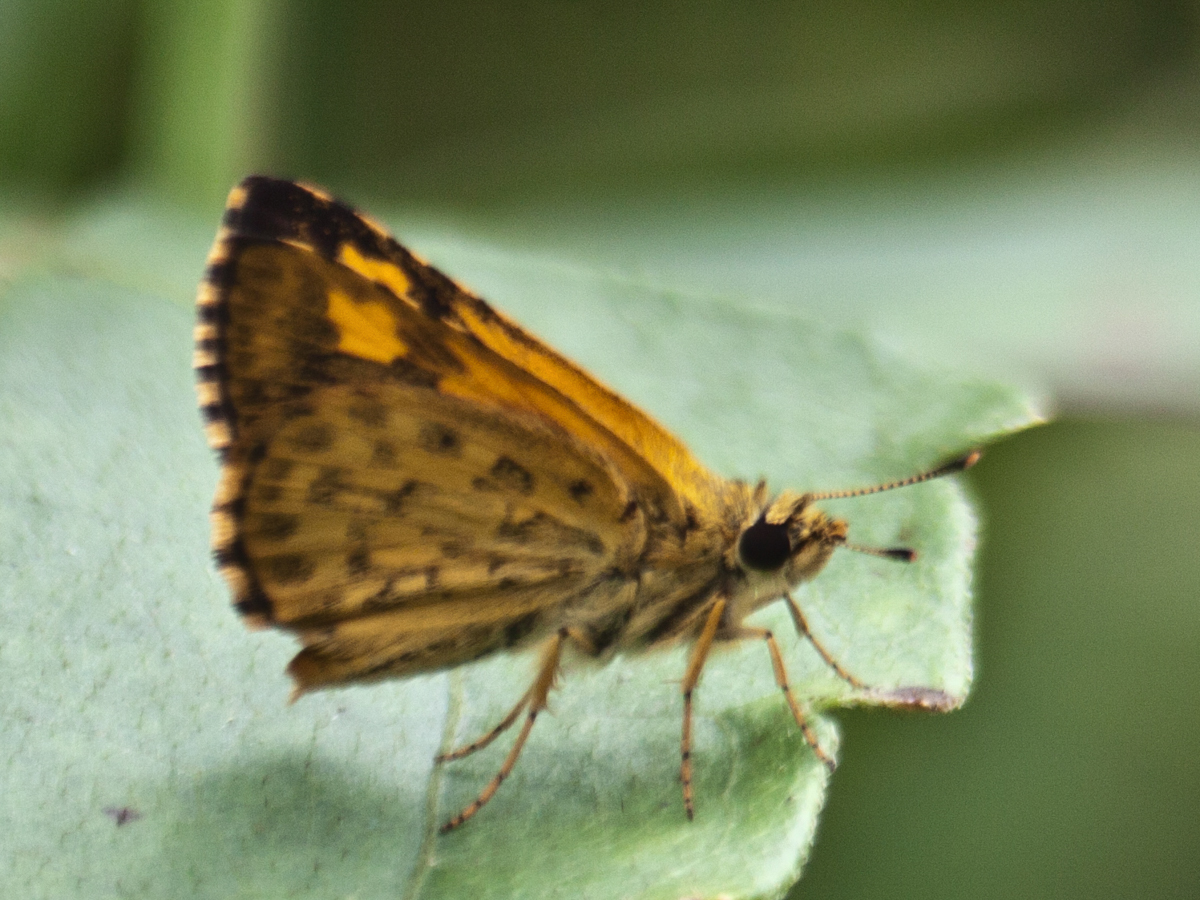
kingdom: Animalia
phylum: Arthropoda
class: Insecta
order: Lepidoptera
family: Hesperiidae
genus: Ampittia
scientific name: Ampittia dioscorides
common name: Common bush hopper
